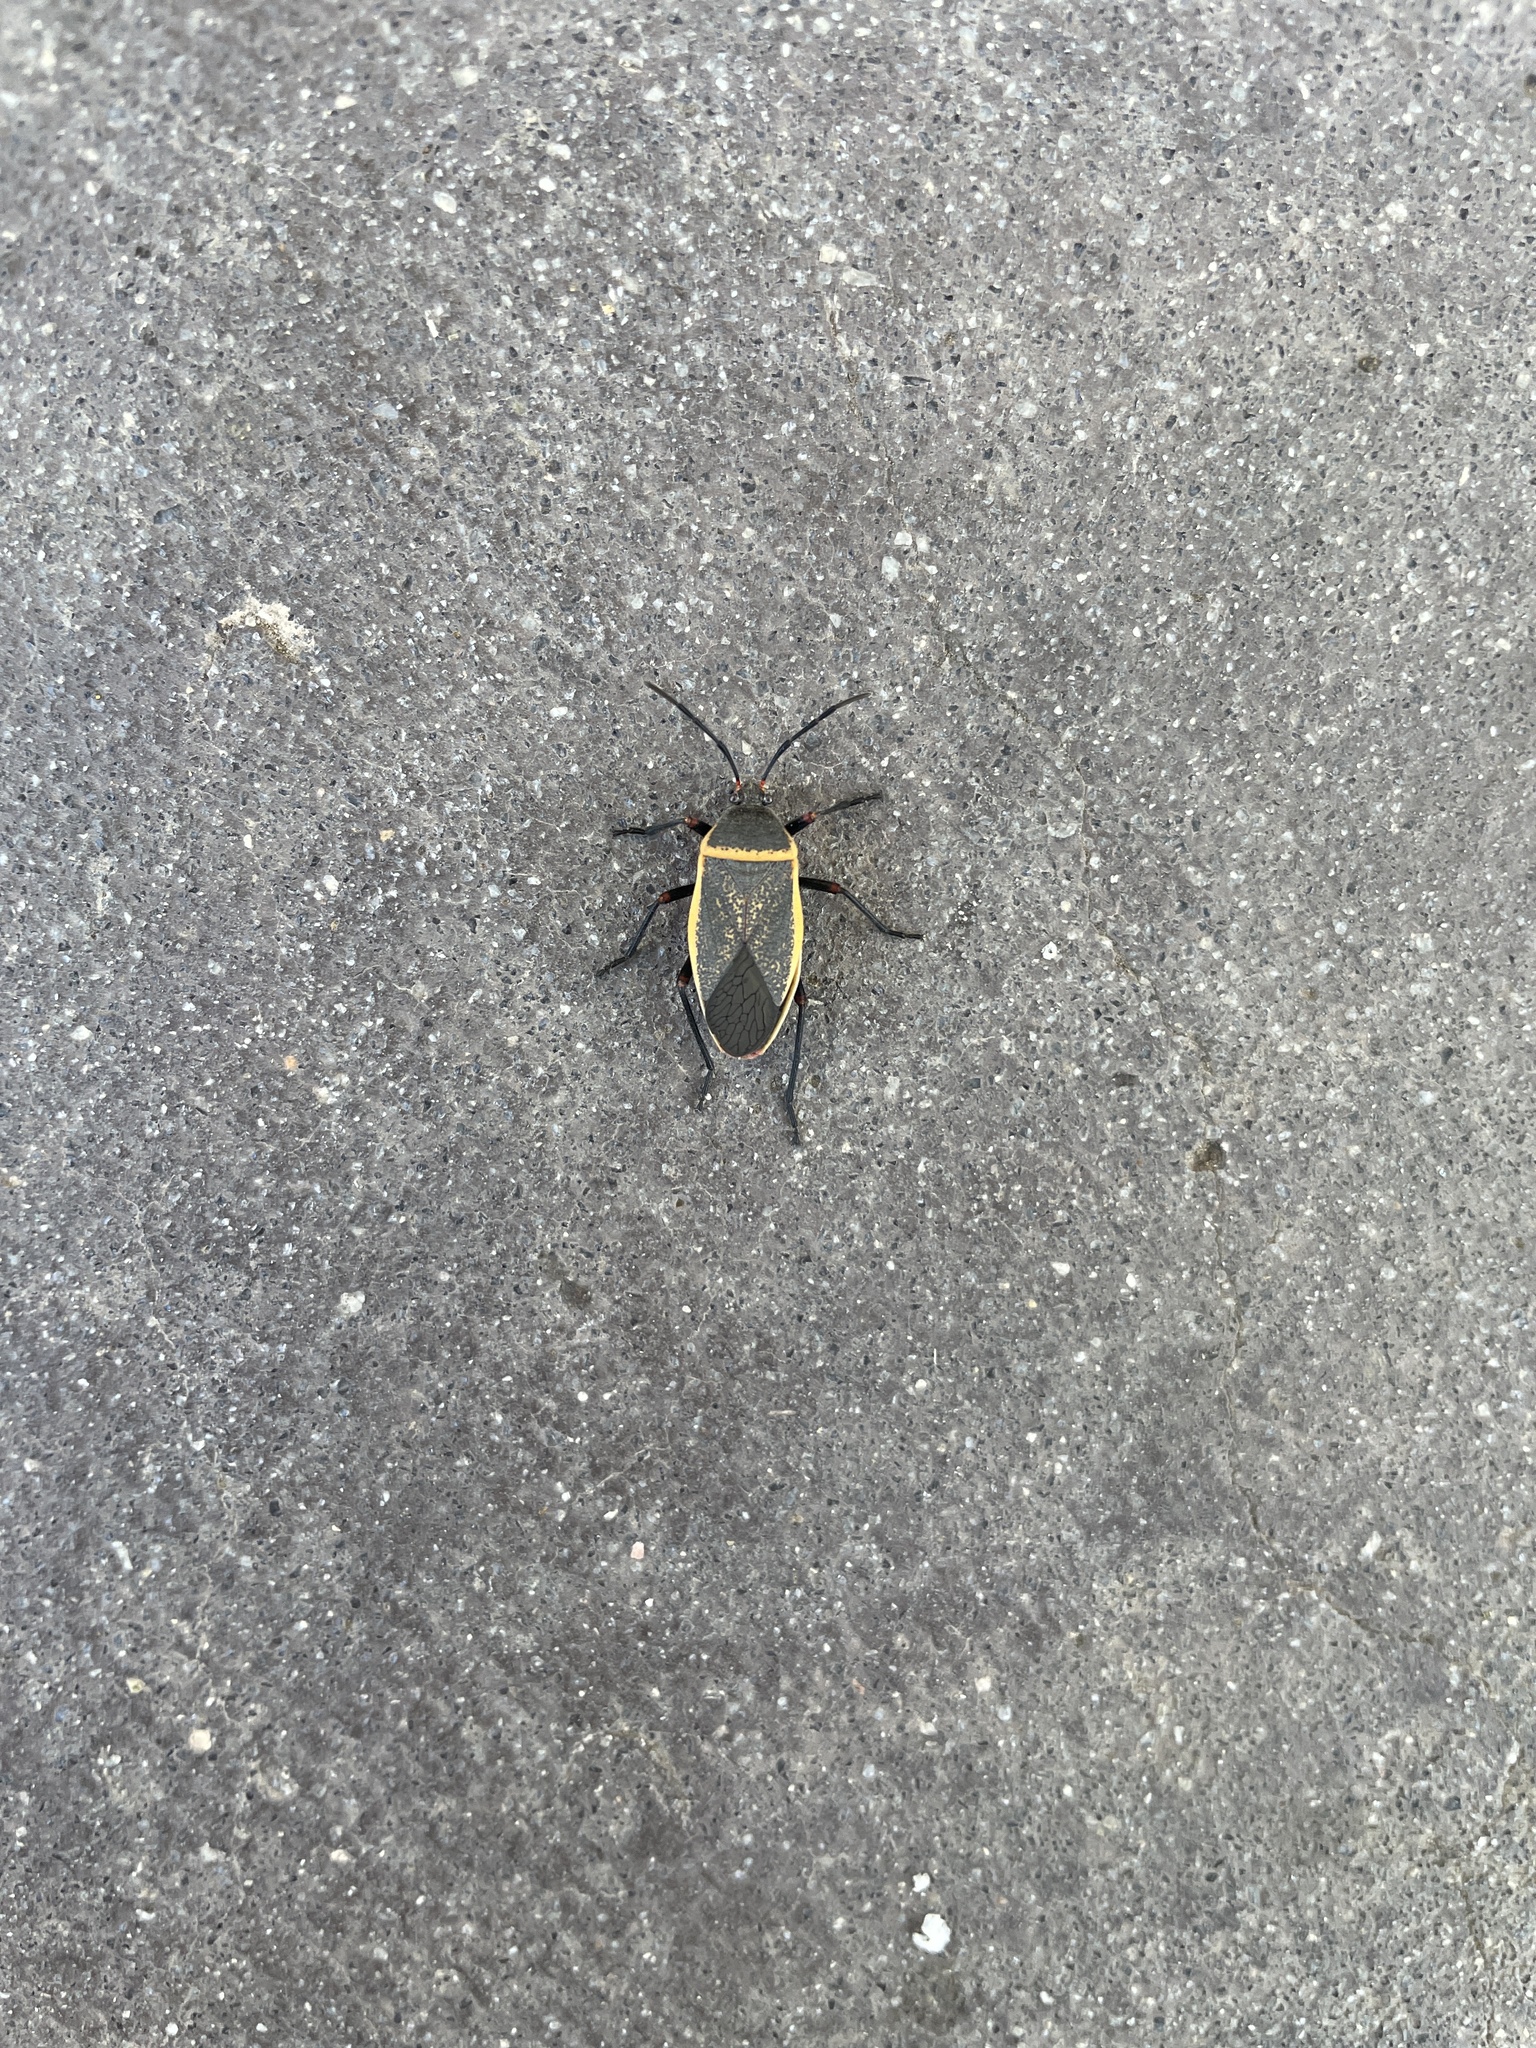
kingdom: Animalia
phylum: Arthropoda
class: Insecta
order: Hemiptera
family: Largidae
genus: Largus
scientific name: Largus californicus
